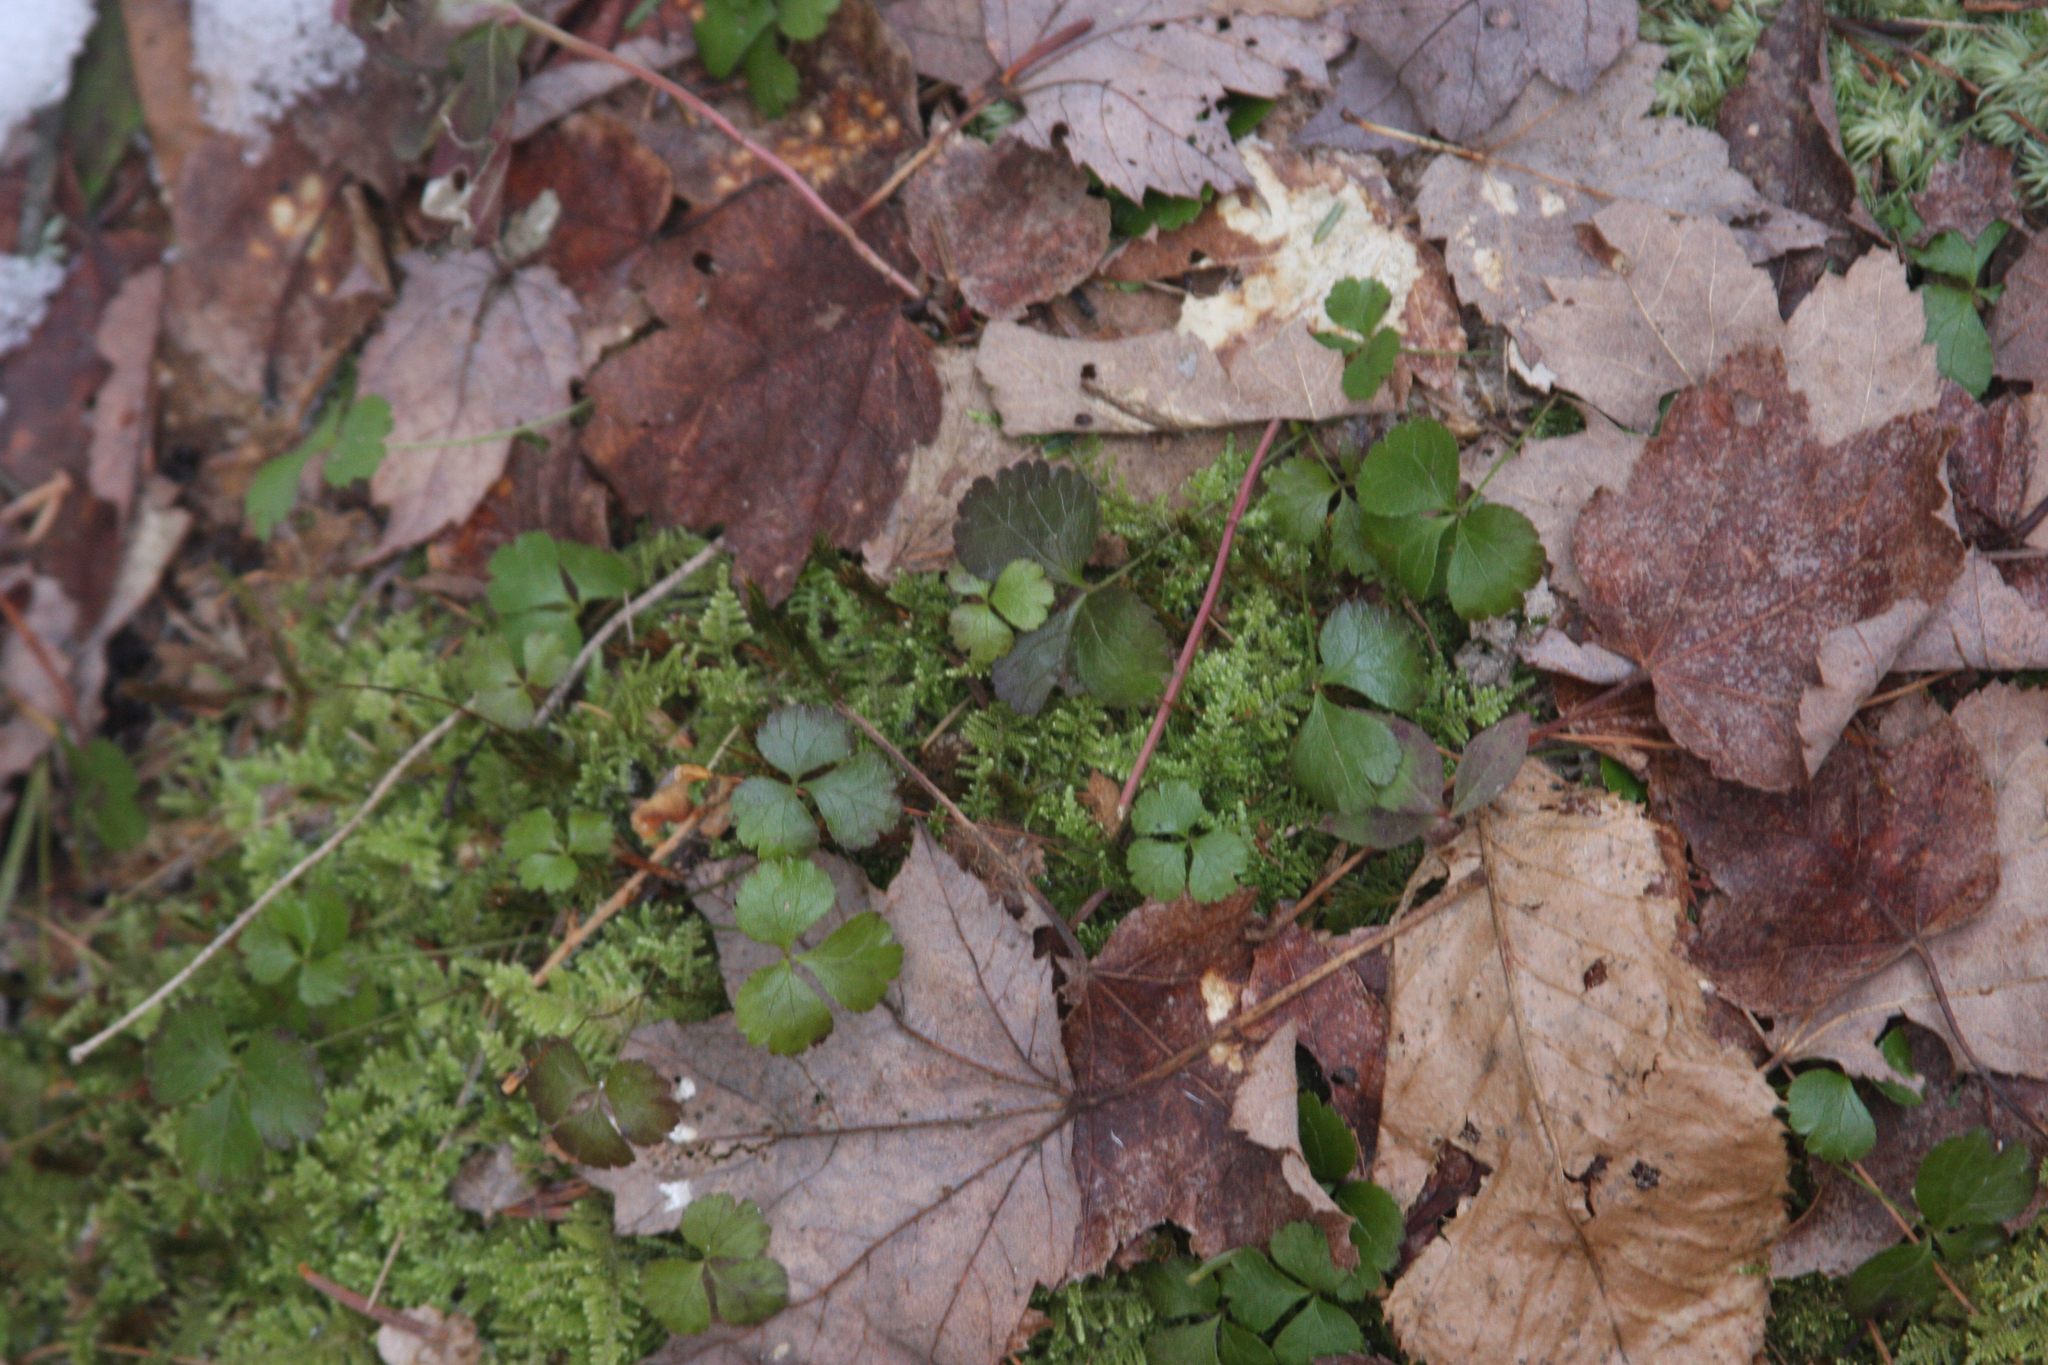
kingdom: Plantae
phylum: Tracheophyta
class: Magnoliopsida
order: Ranunculales
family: Ranunculaceae
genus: Coptis
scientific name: Coptis trifolia
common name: Canker-root
